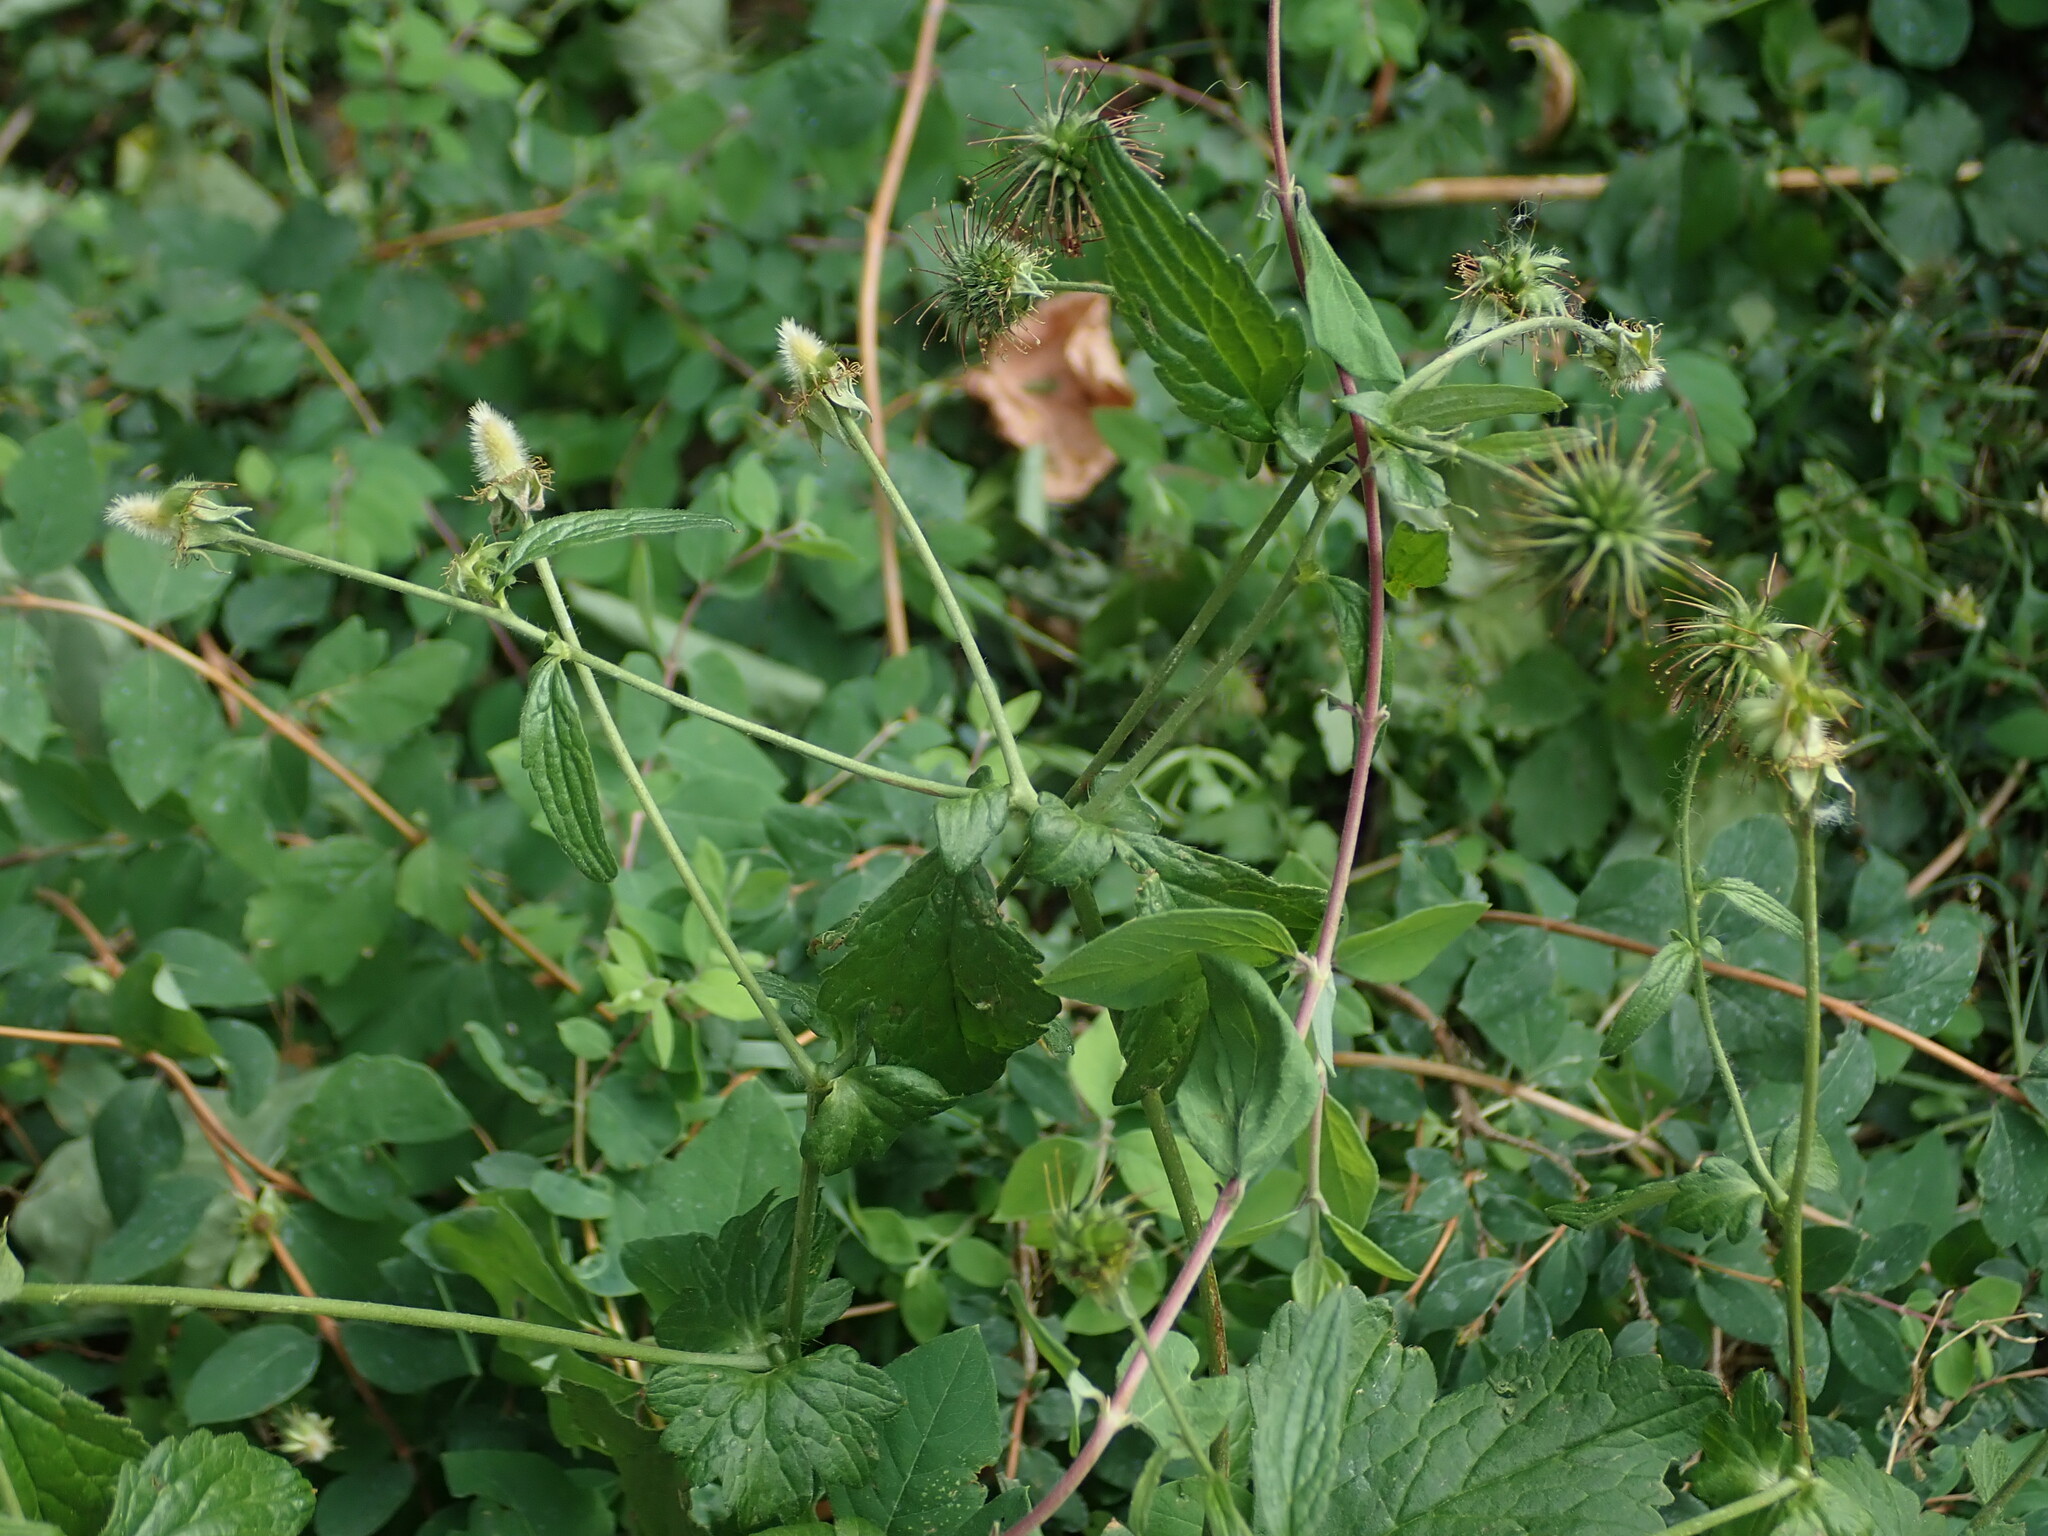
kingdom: Plantae
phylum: Tracheophyta
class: Magnoliopsida
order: Rosales
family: Rosaceae
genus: Geum
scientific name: Geum urbanum
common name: Wood avens
